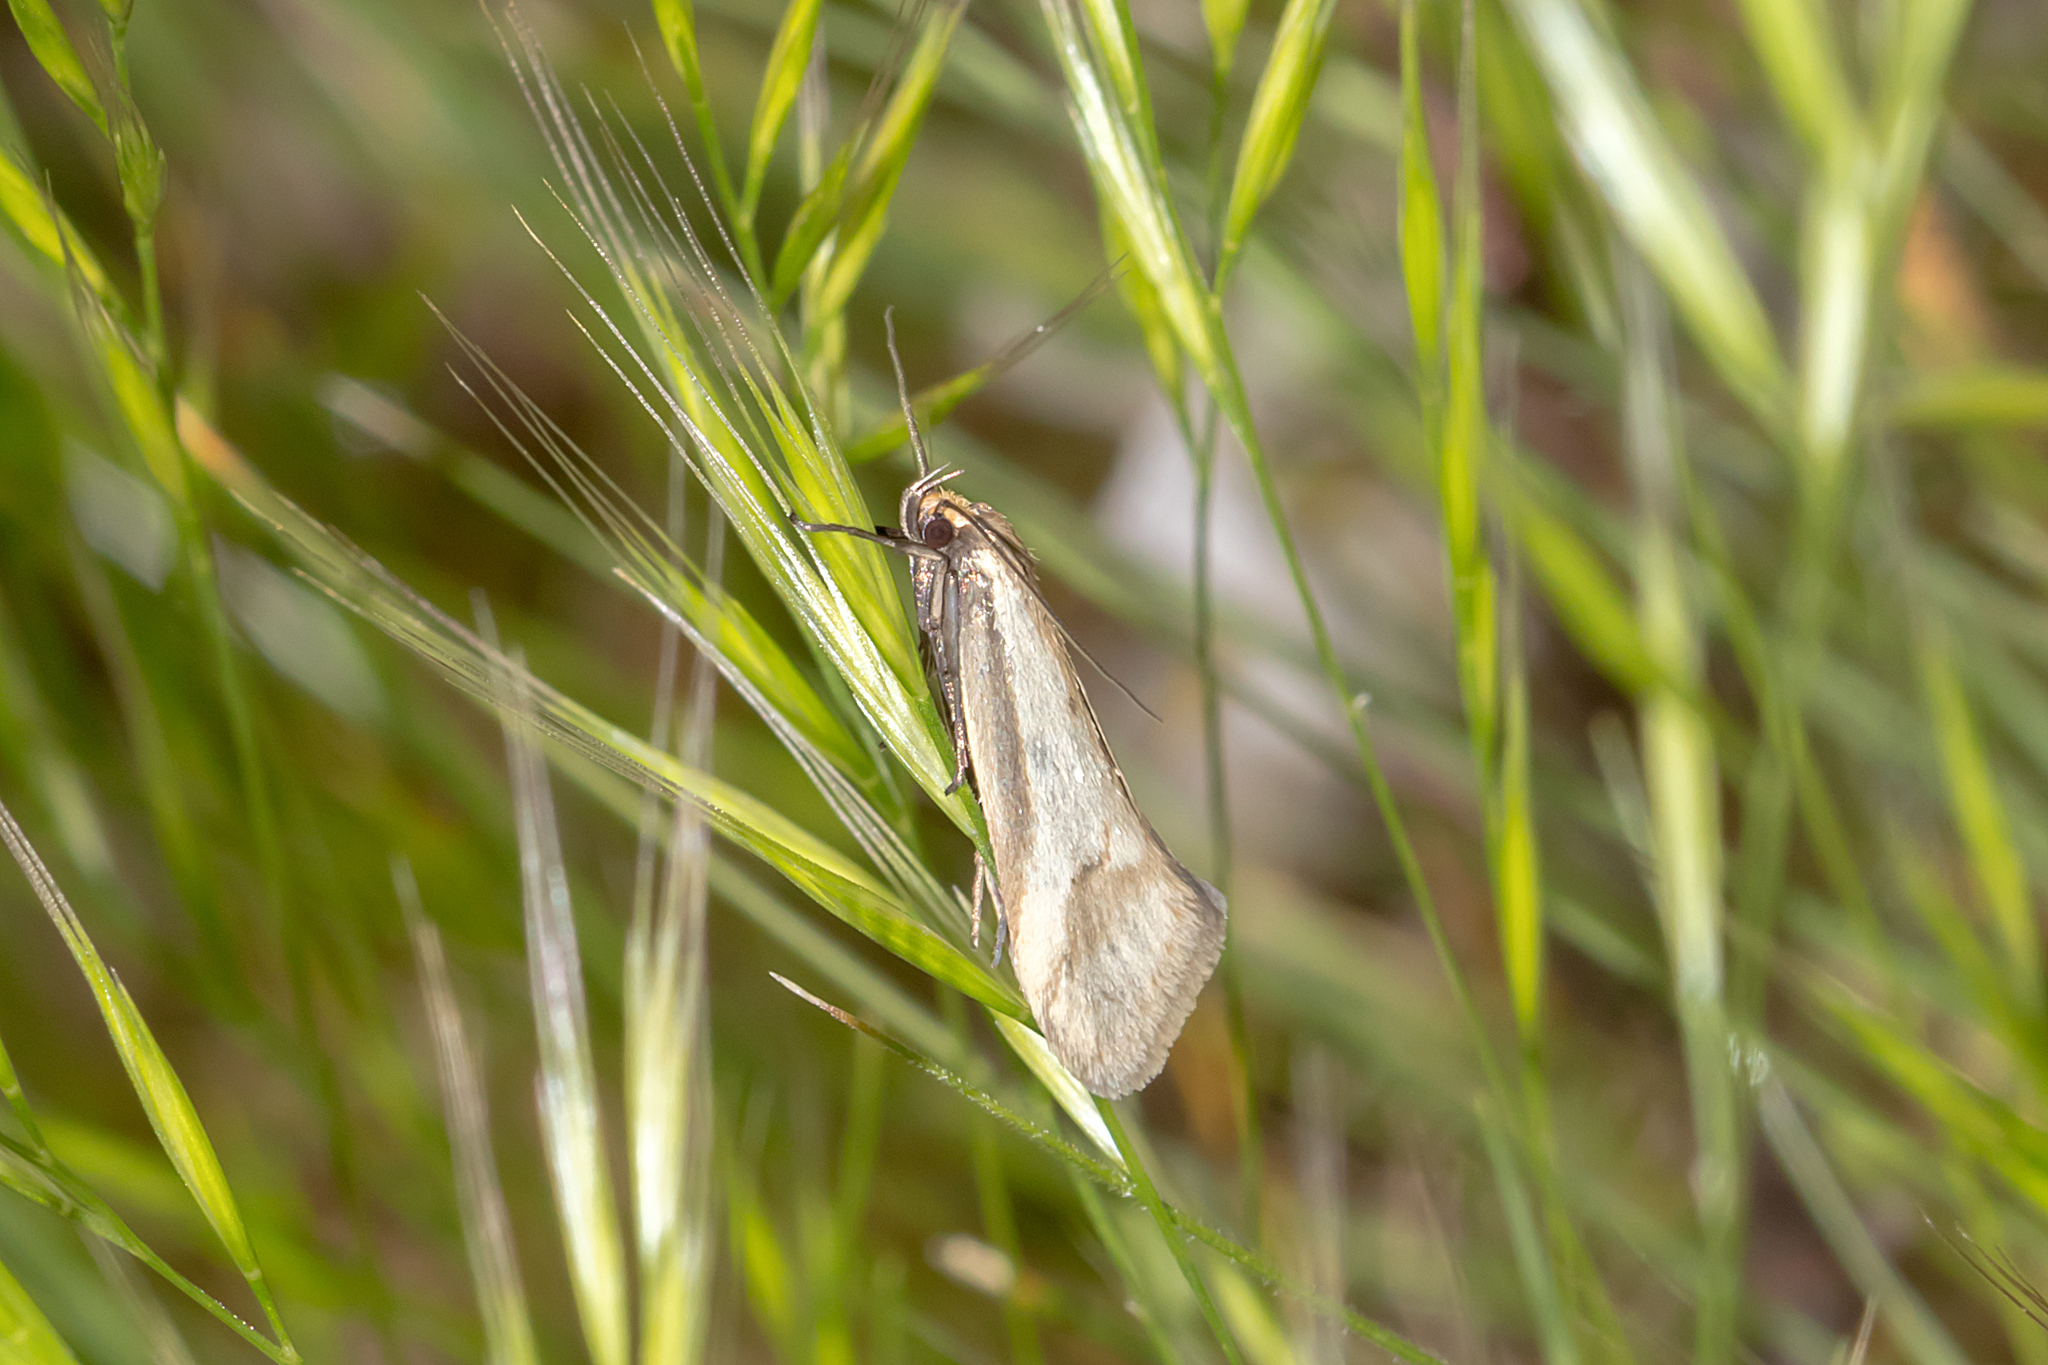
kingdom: Animalia
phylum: Arthropoda
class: Insecta
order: Lepidoptera
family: Oecophoridae
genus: Philobota
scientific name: Philobota ellenella
